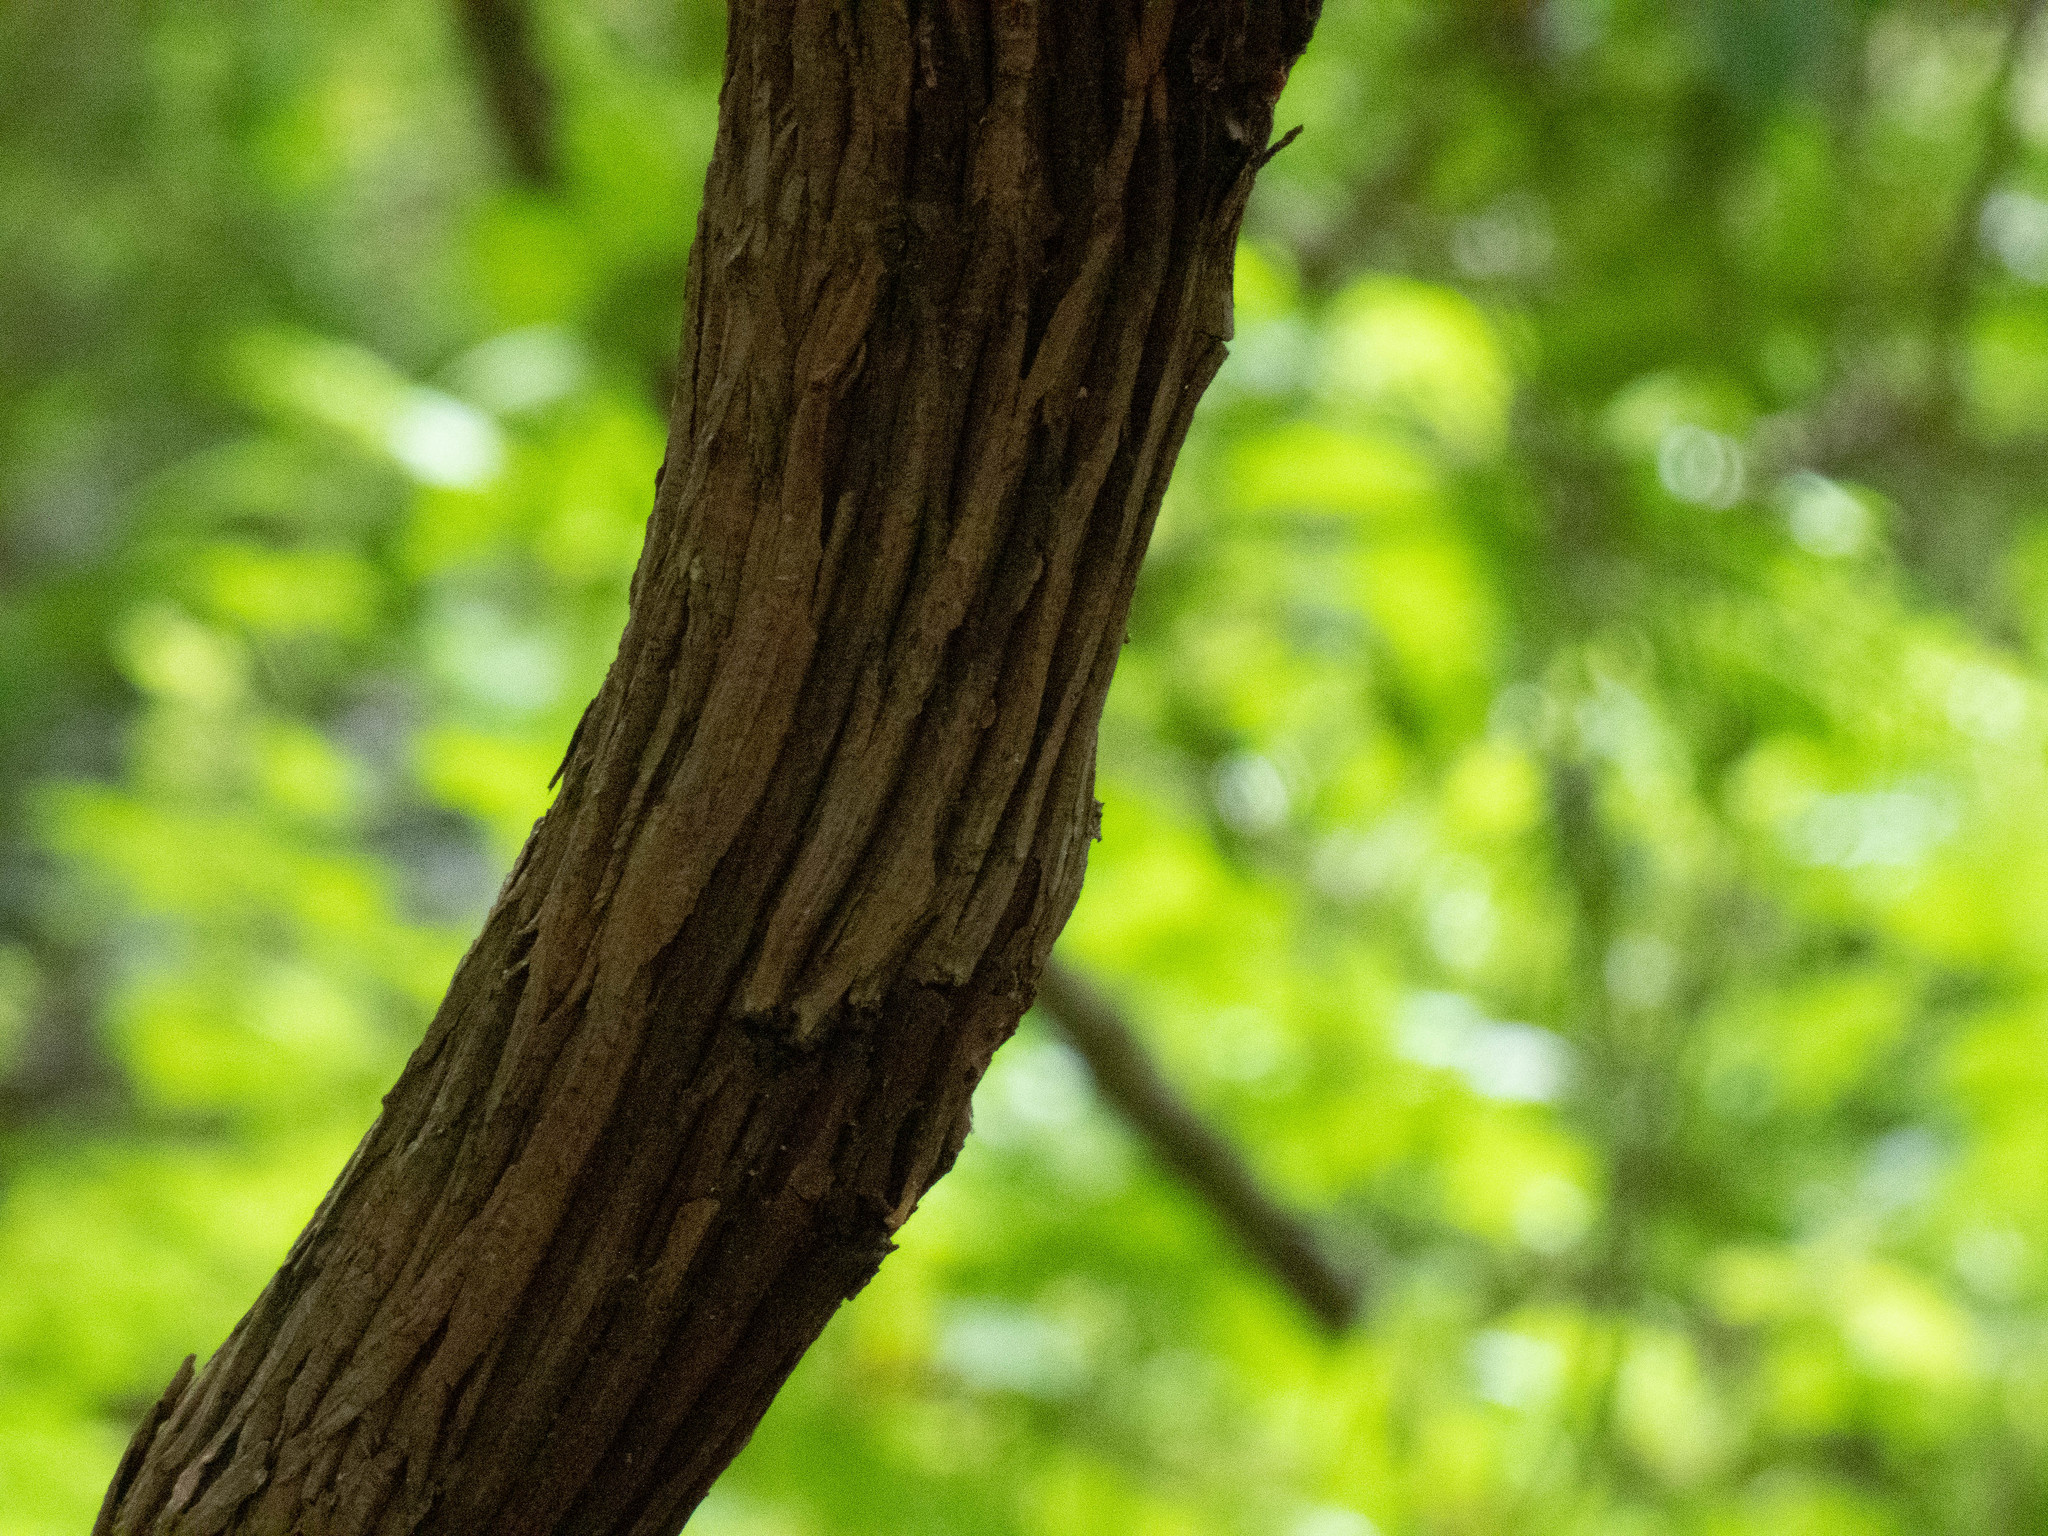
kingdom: Plantae
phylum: Tracheophyta
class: Magnoliopsida
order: Ericales
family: Ericaceae
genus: Kalmia
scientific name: Kalmia latifolia
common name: Mountain-laurel
